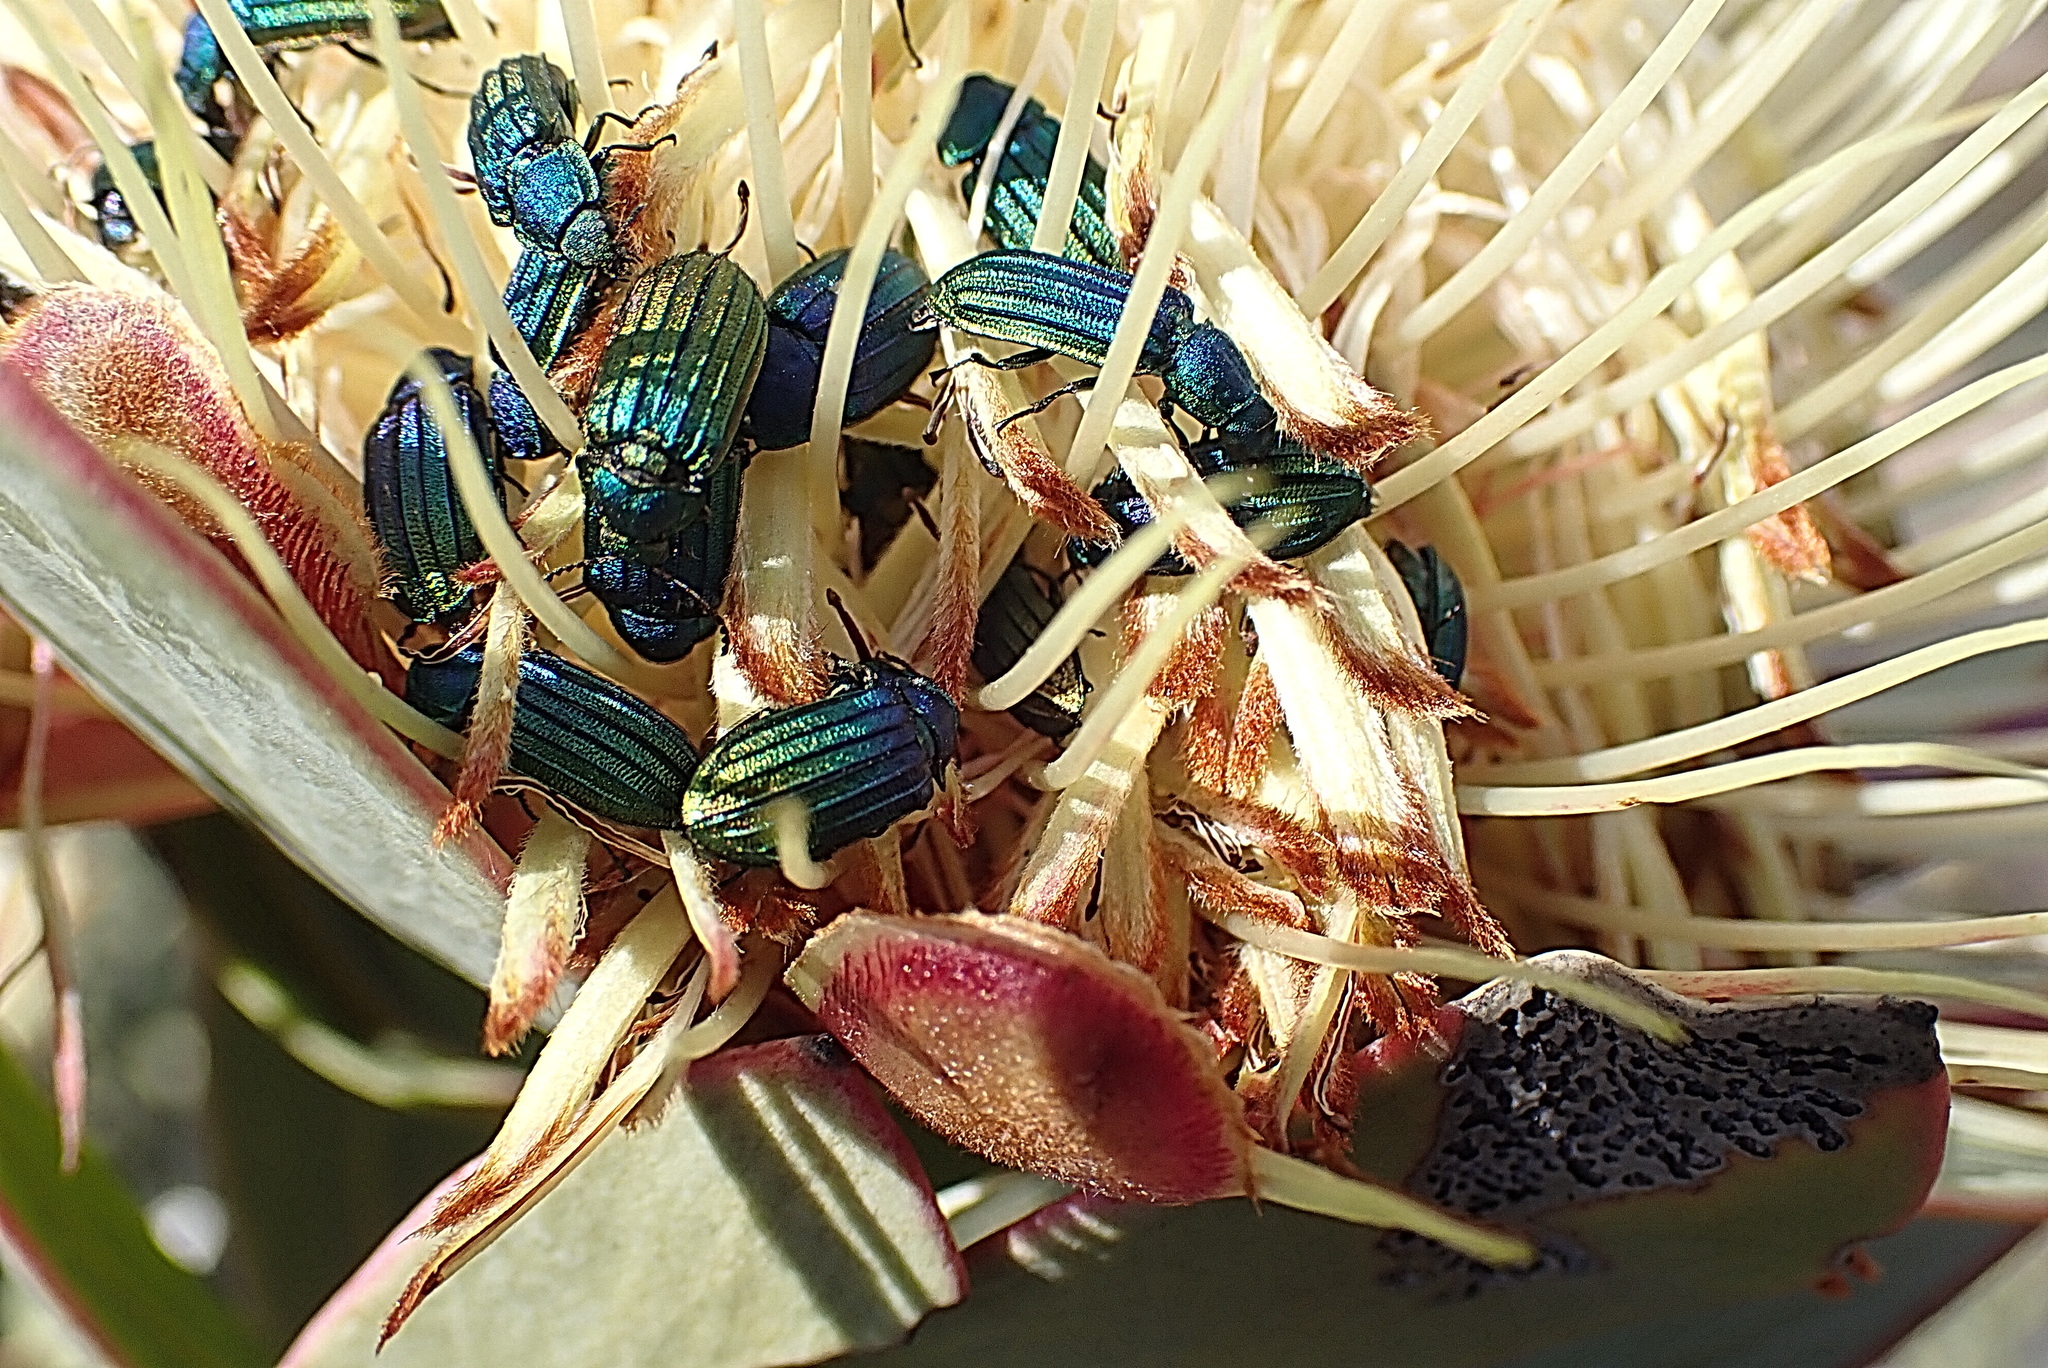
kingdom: Animalia
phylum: Arthropoda
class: Insecta
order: Coleoptera
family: Melyridae
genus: Melyris
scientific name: Melyris
